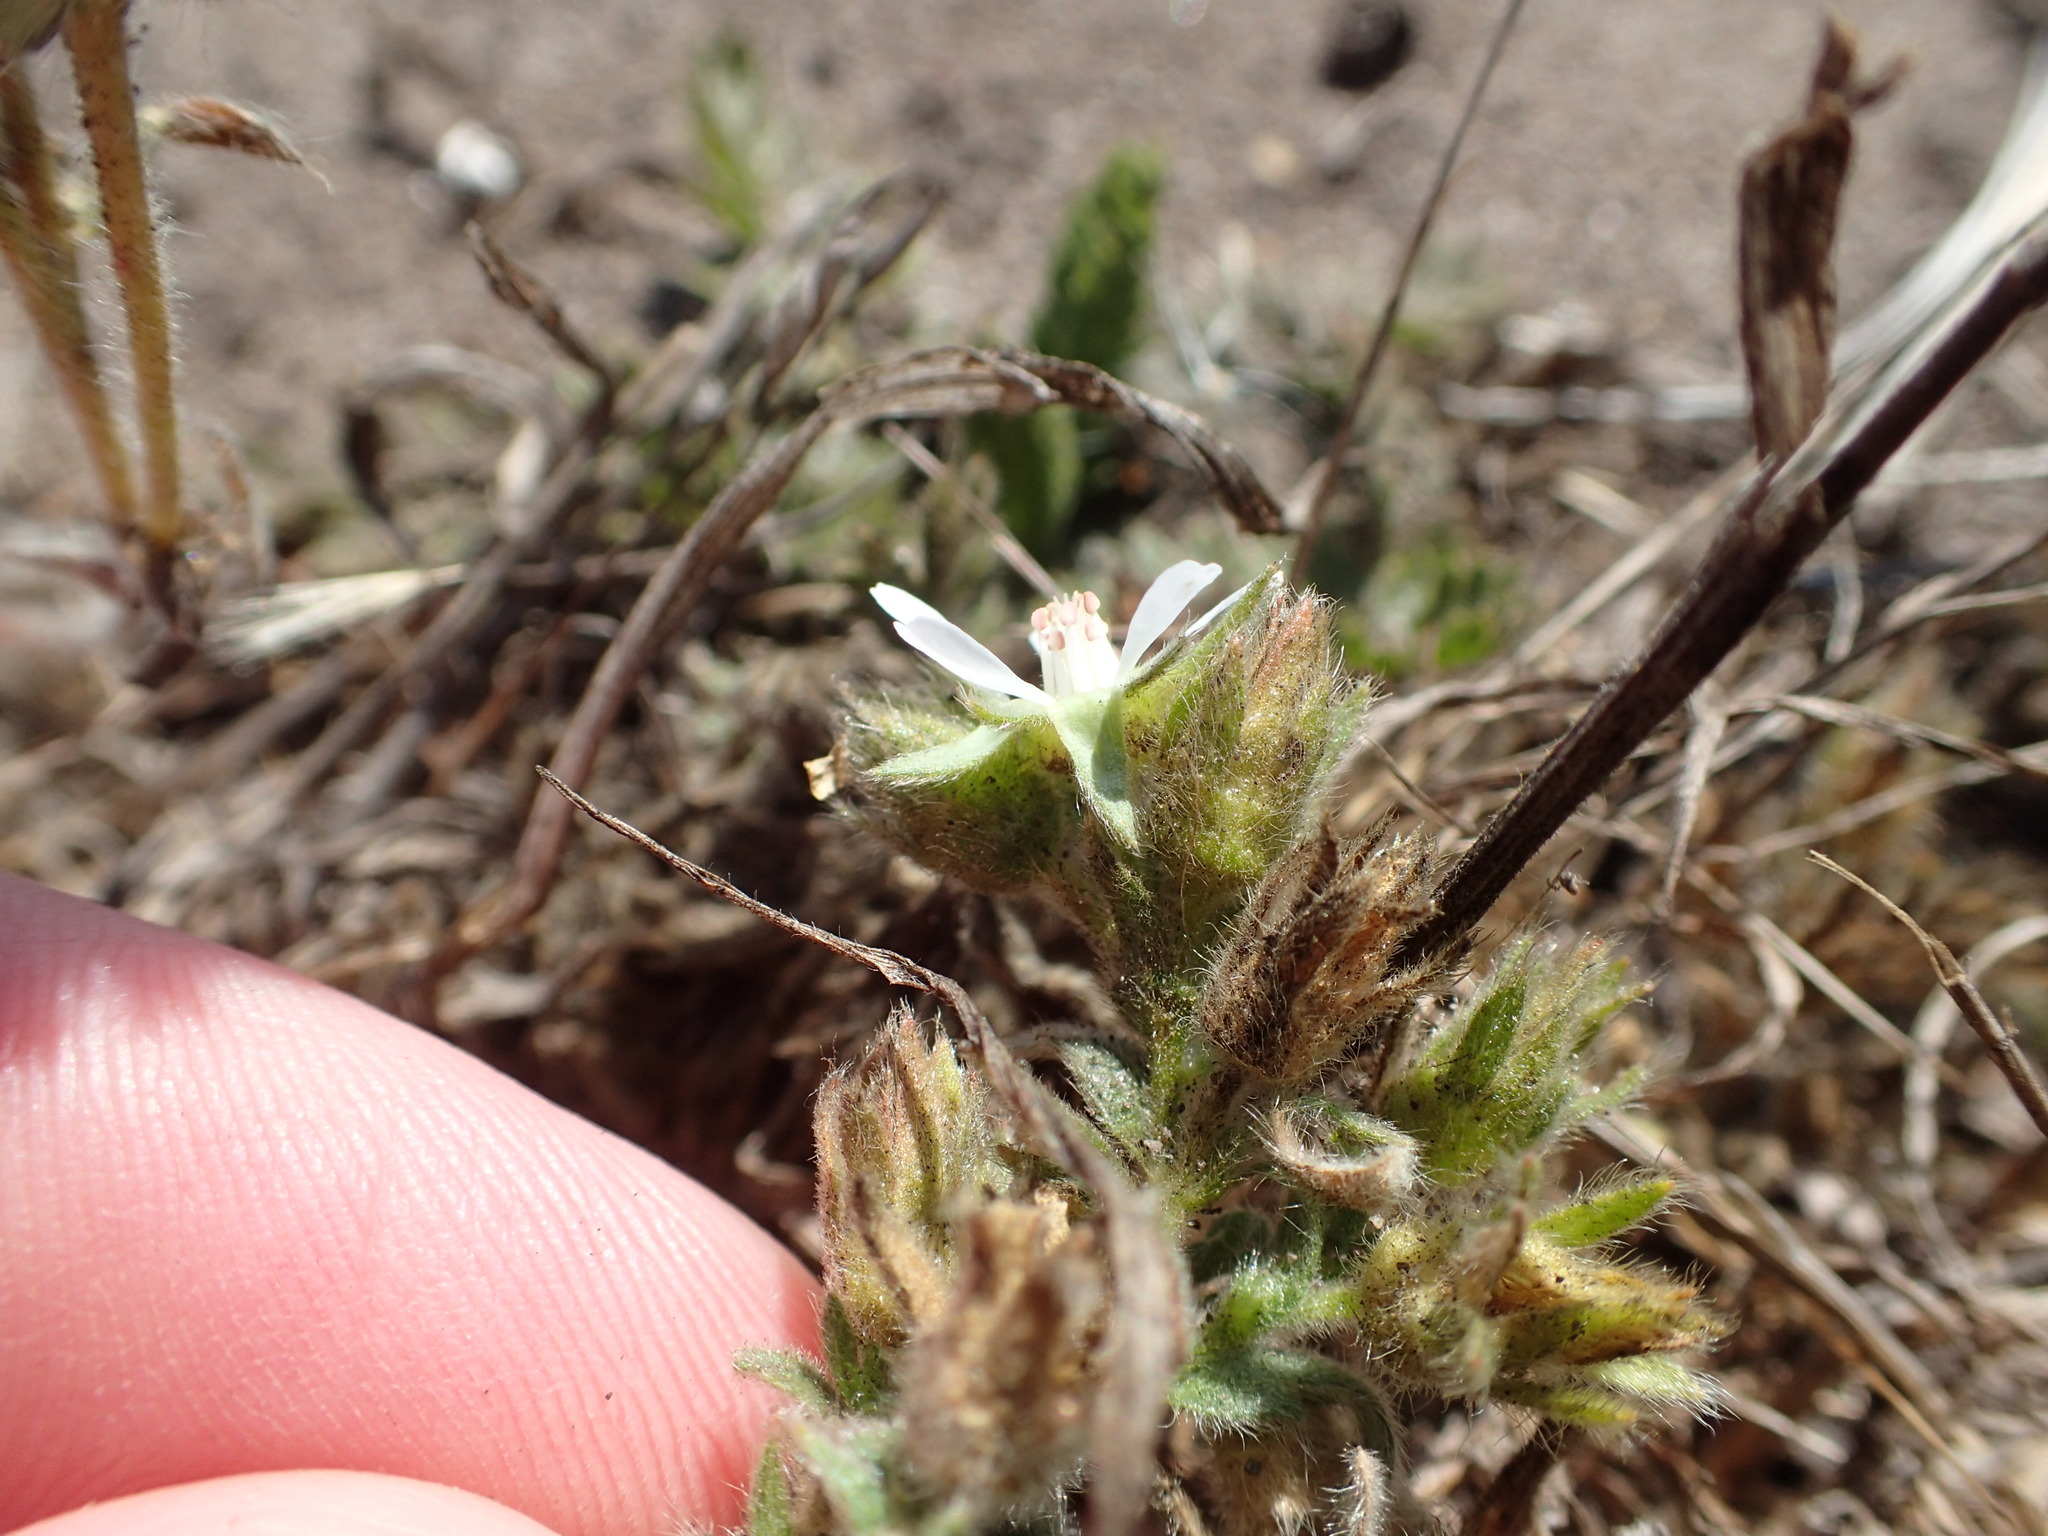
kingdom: Plantae
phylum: Tracheophyta
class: Magnoliopsida
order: Rosales
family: Rosaceae
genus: Potentilla
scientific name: Potentilla marinensis
